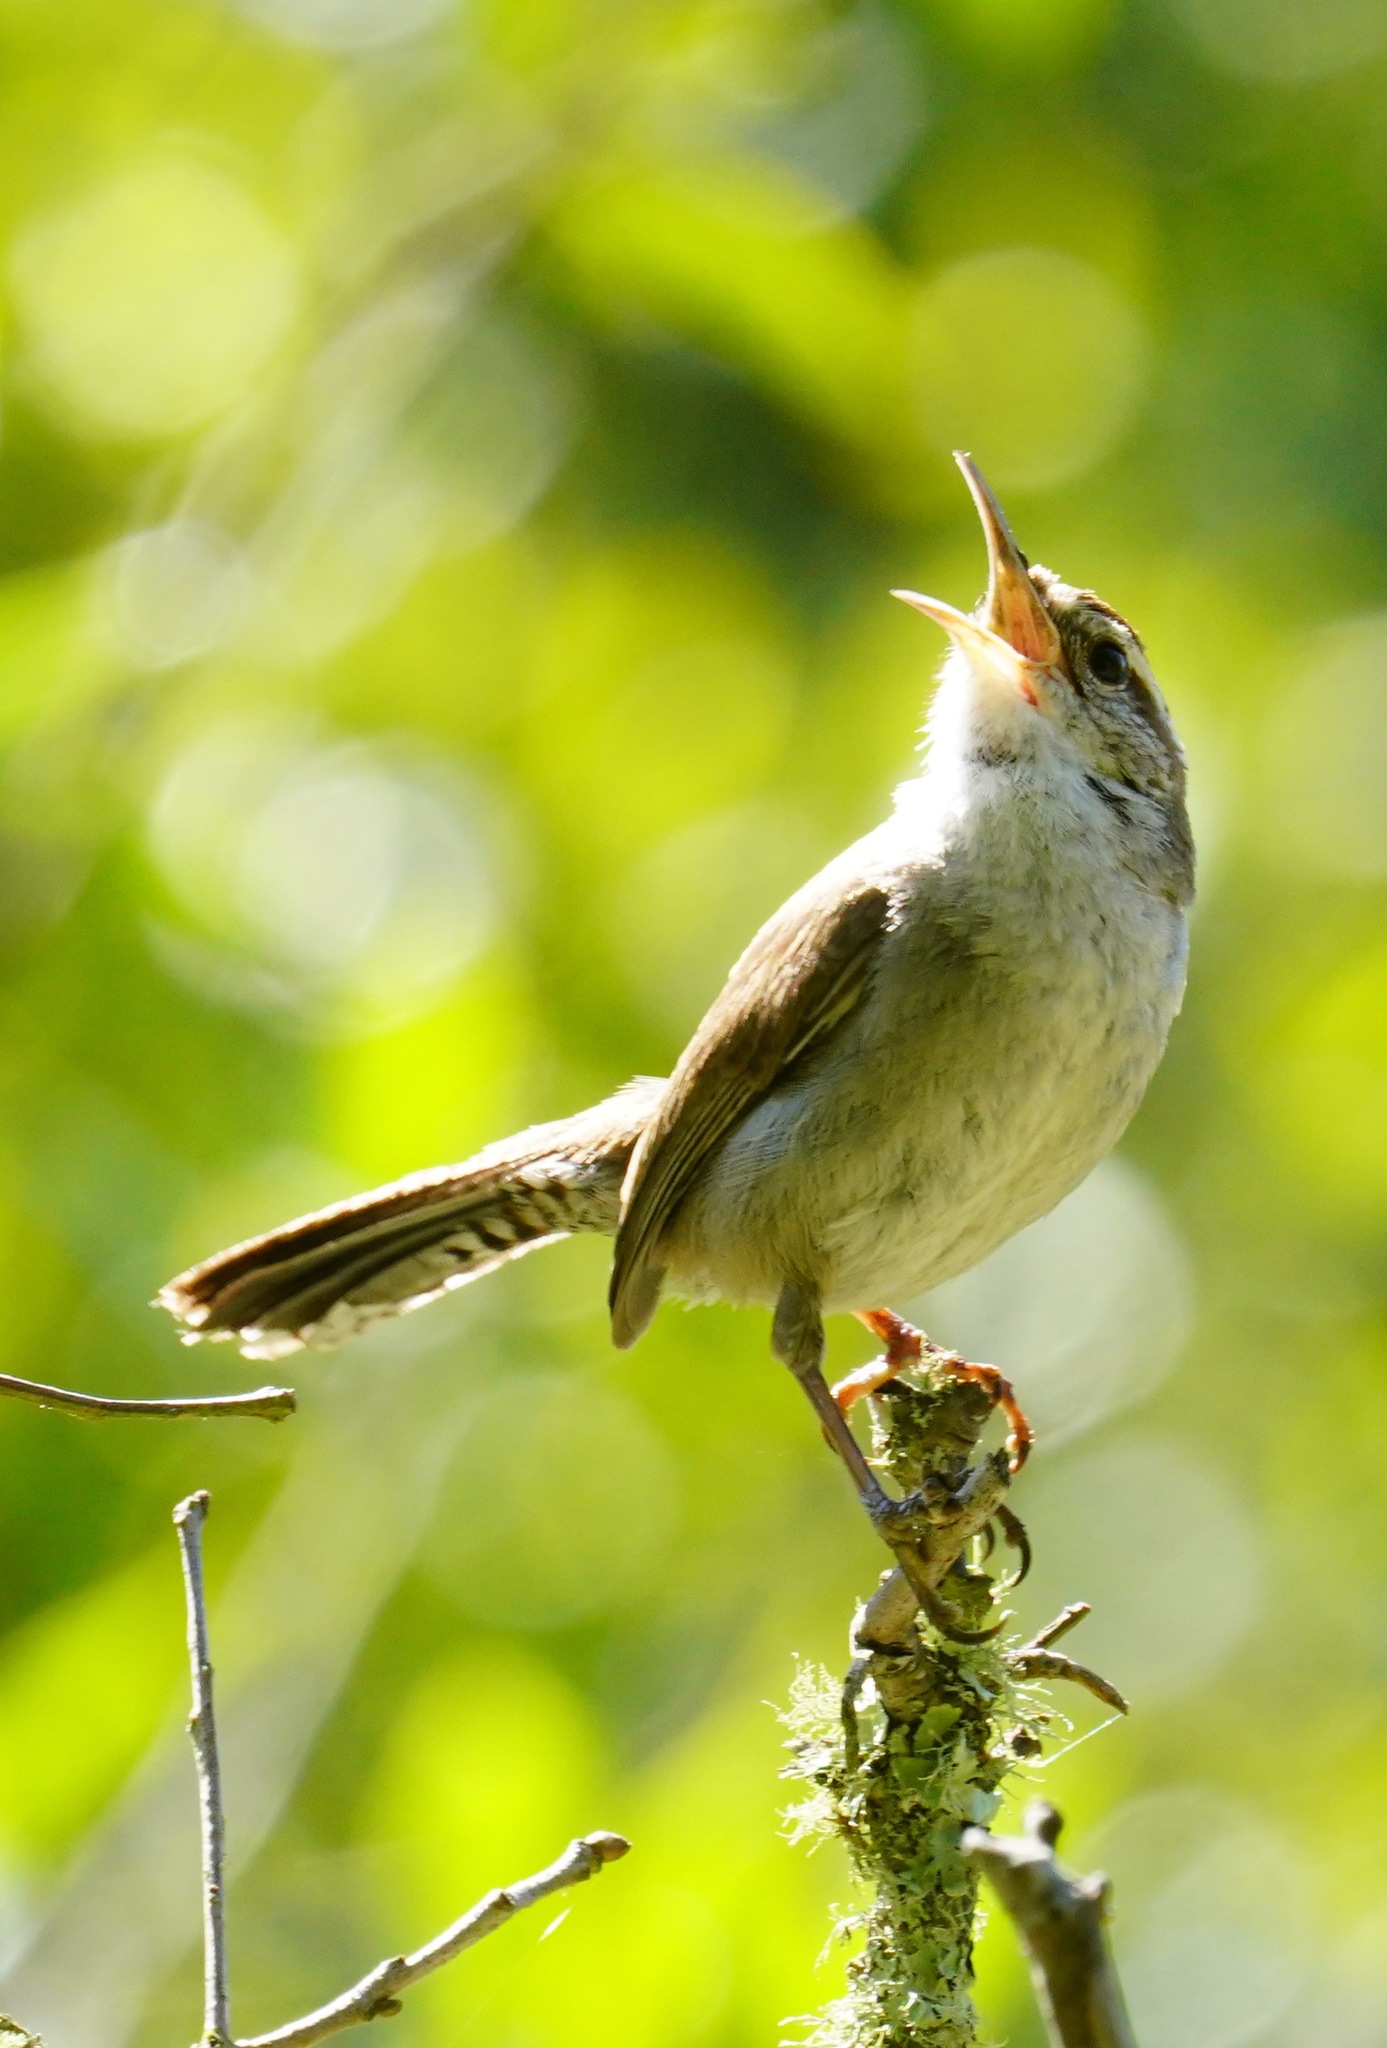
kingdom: Animalia
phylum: Chordata
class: Aves
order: Passeriformes
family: Troglodytidae
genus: Thryomanes
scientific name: Thryomanes bewickii
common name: Bewick's wren
